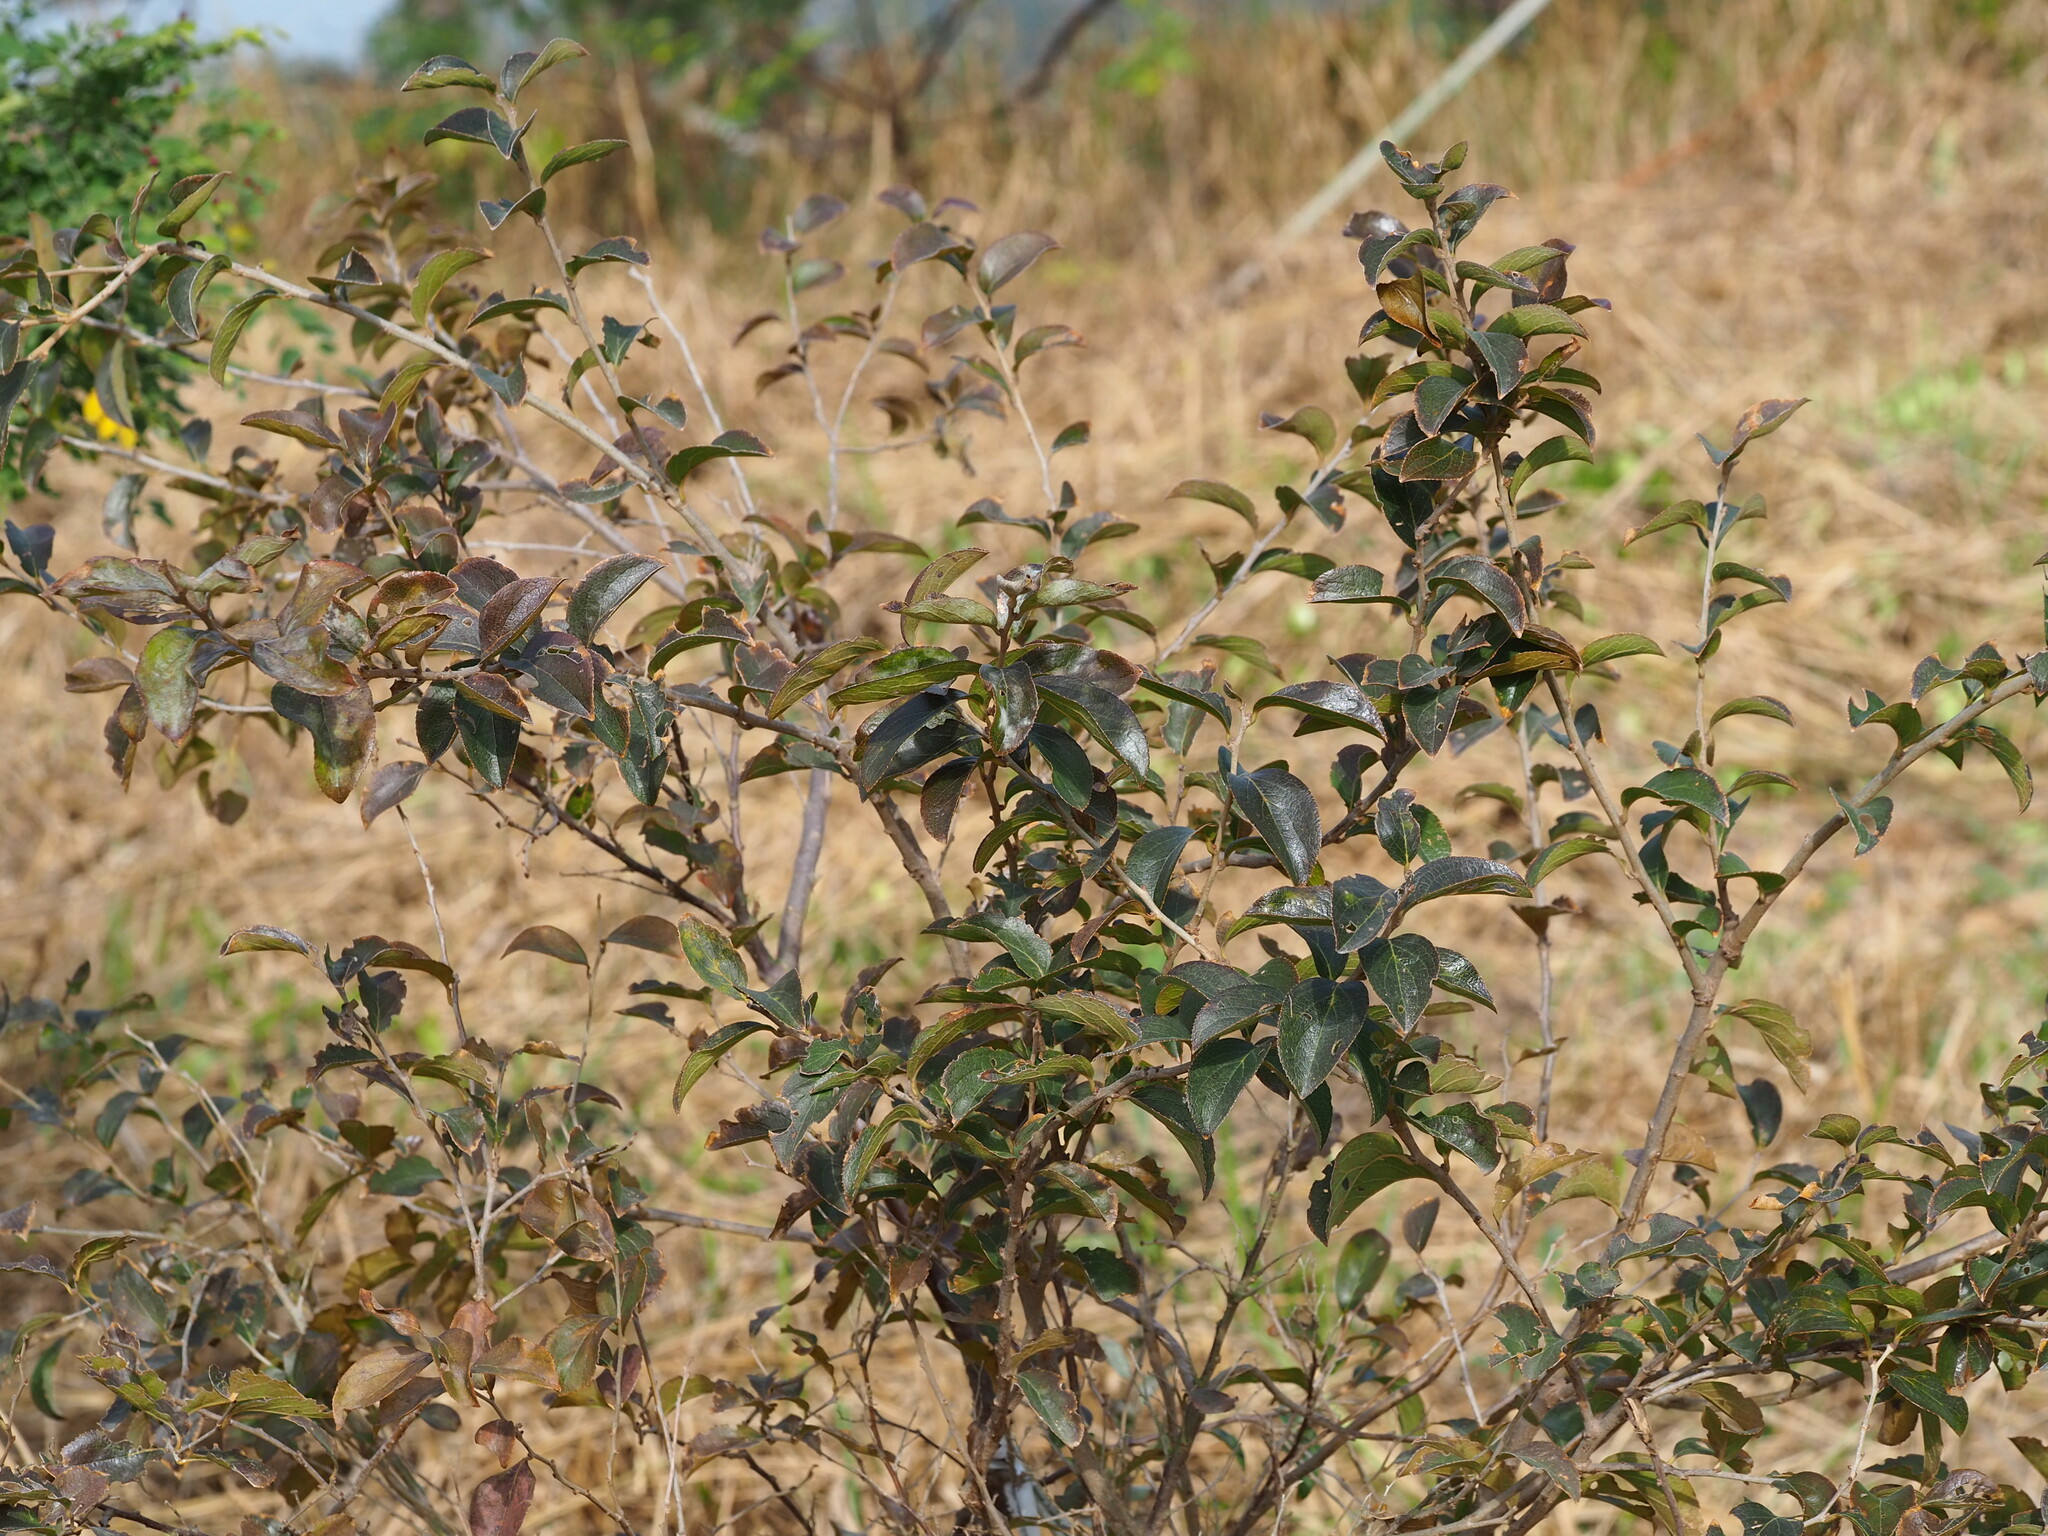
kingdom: Plantae
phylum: Tracheophyta
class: Magnoliopsida
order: Ericales
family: Symplocaceae
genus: Symplocos
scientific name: Symplocos paniculata
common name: Sapphire-berry
